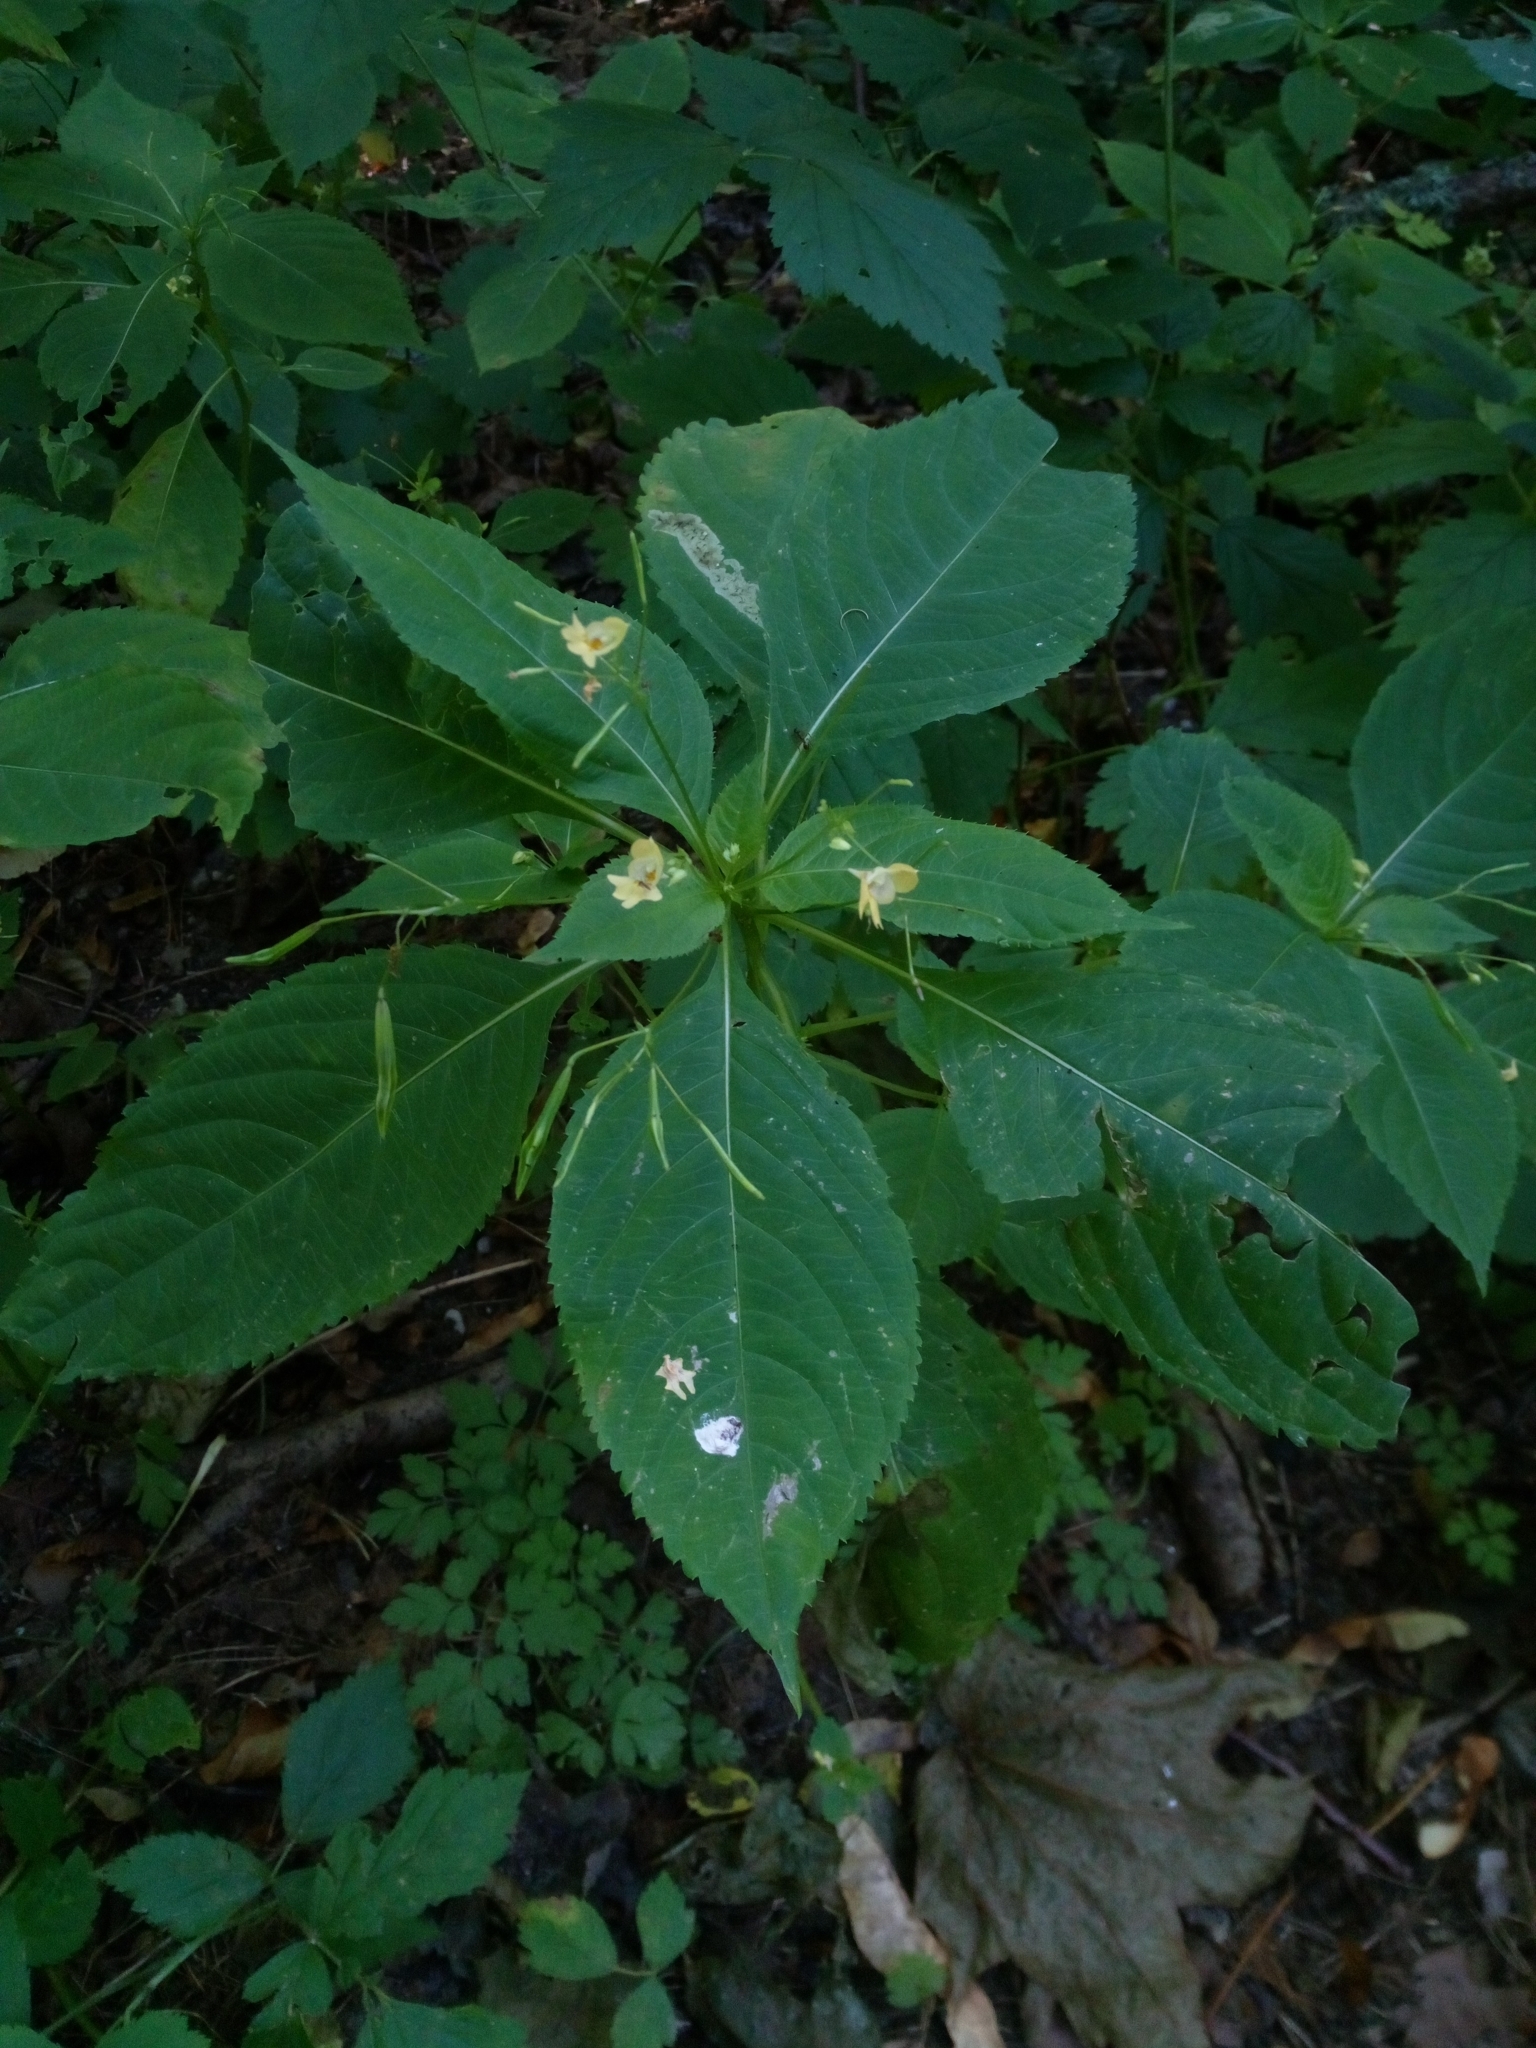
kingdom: Plantae
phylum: Tracheophyta
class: Magnoliopsida
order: Ericales
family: Balsaminaceae
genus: Impatiens
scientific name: Impatiens parviflora
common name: Small balsam
